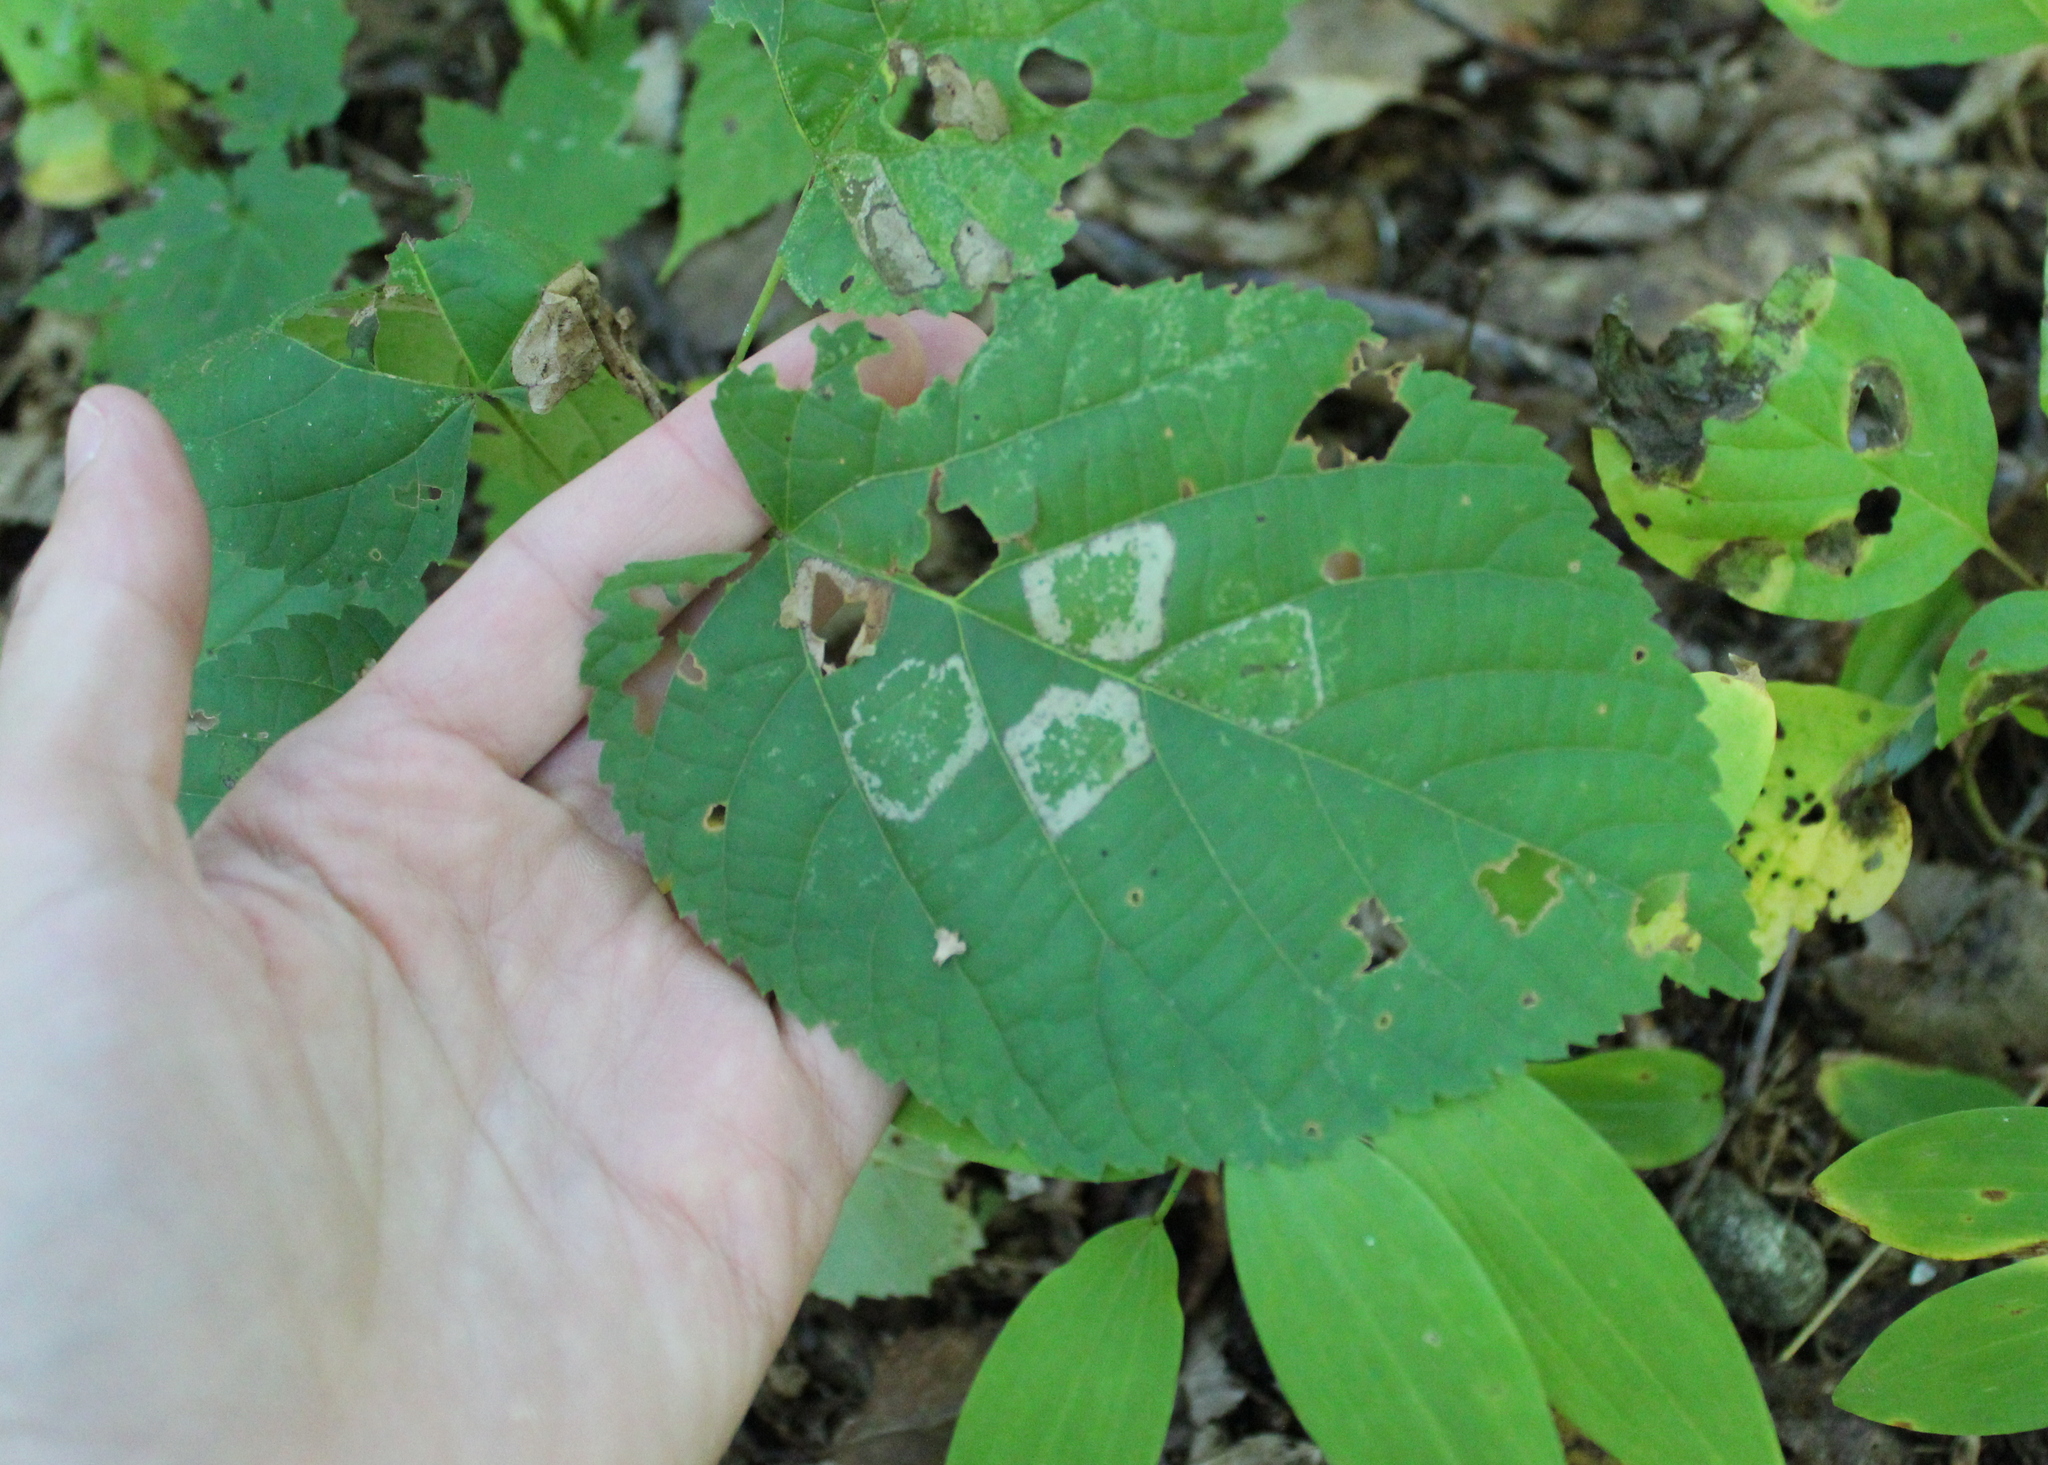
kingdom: Animalia
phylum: Arthropoda
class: Insecta
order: Lepidoptera
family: Gracillariidae
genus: Phyllonorycter
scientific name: Phyllonorycter lucetiella
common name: Basswood miner moth
